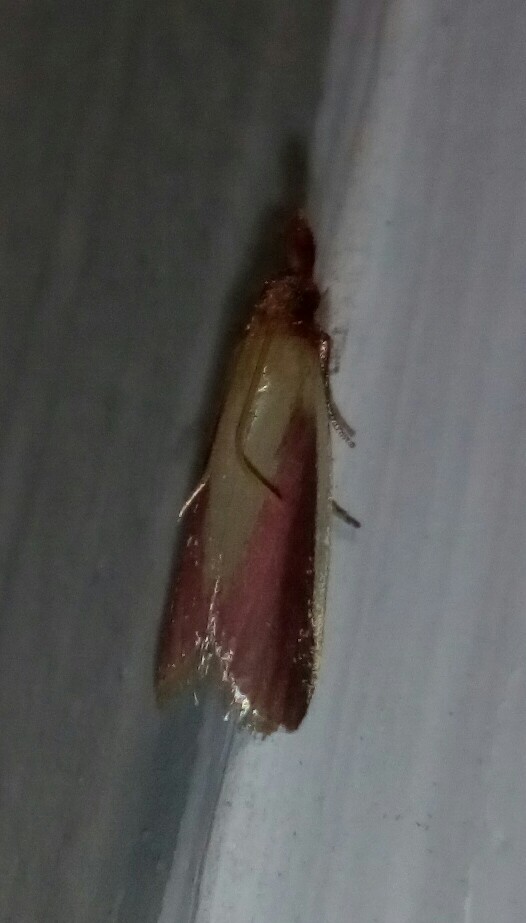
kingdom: Animalia
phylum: Arthropoda
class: Insecta
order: Lepidoptera
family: Pyralidae
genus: Peoria
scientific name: Peoria approximella
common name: Carmine snout
